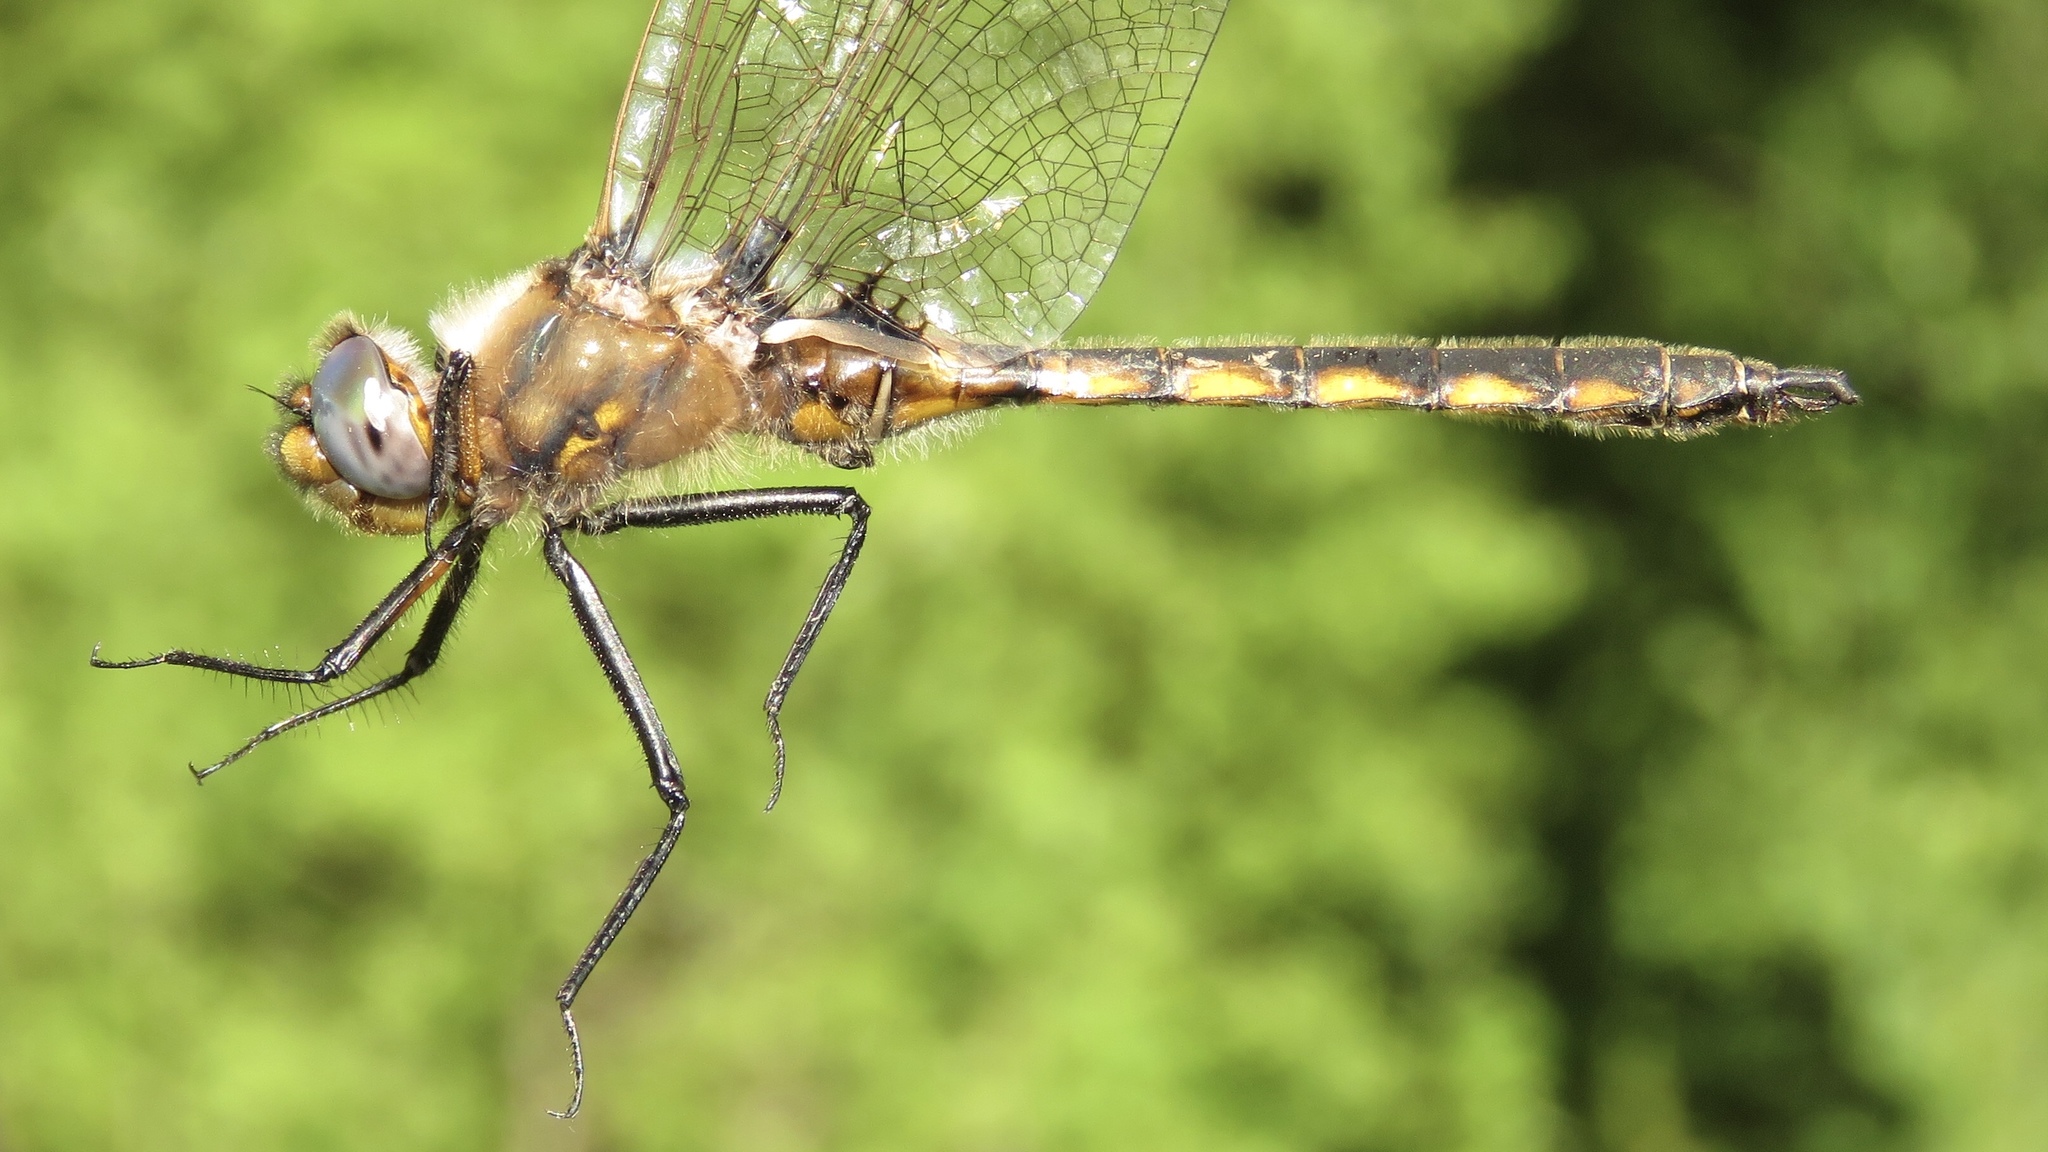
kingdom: Animalia
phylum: Arthropoda
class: Insecta
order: Odonata
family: Corduliidae
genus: Epitheca
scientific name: Epitheca canis
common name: Beaverpond baskettail
